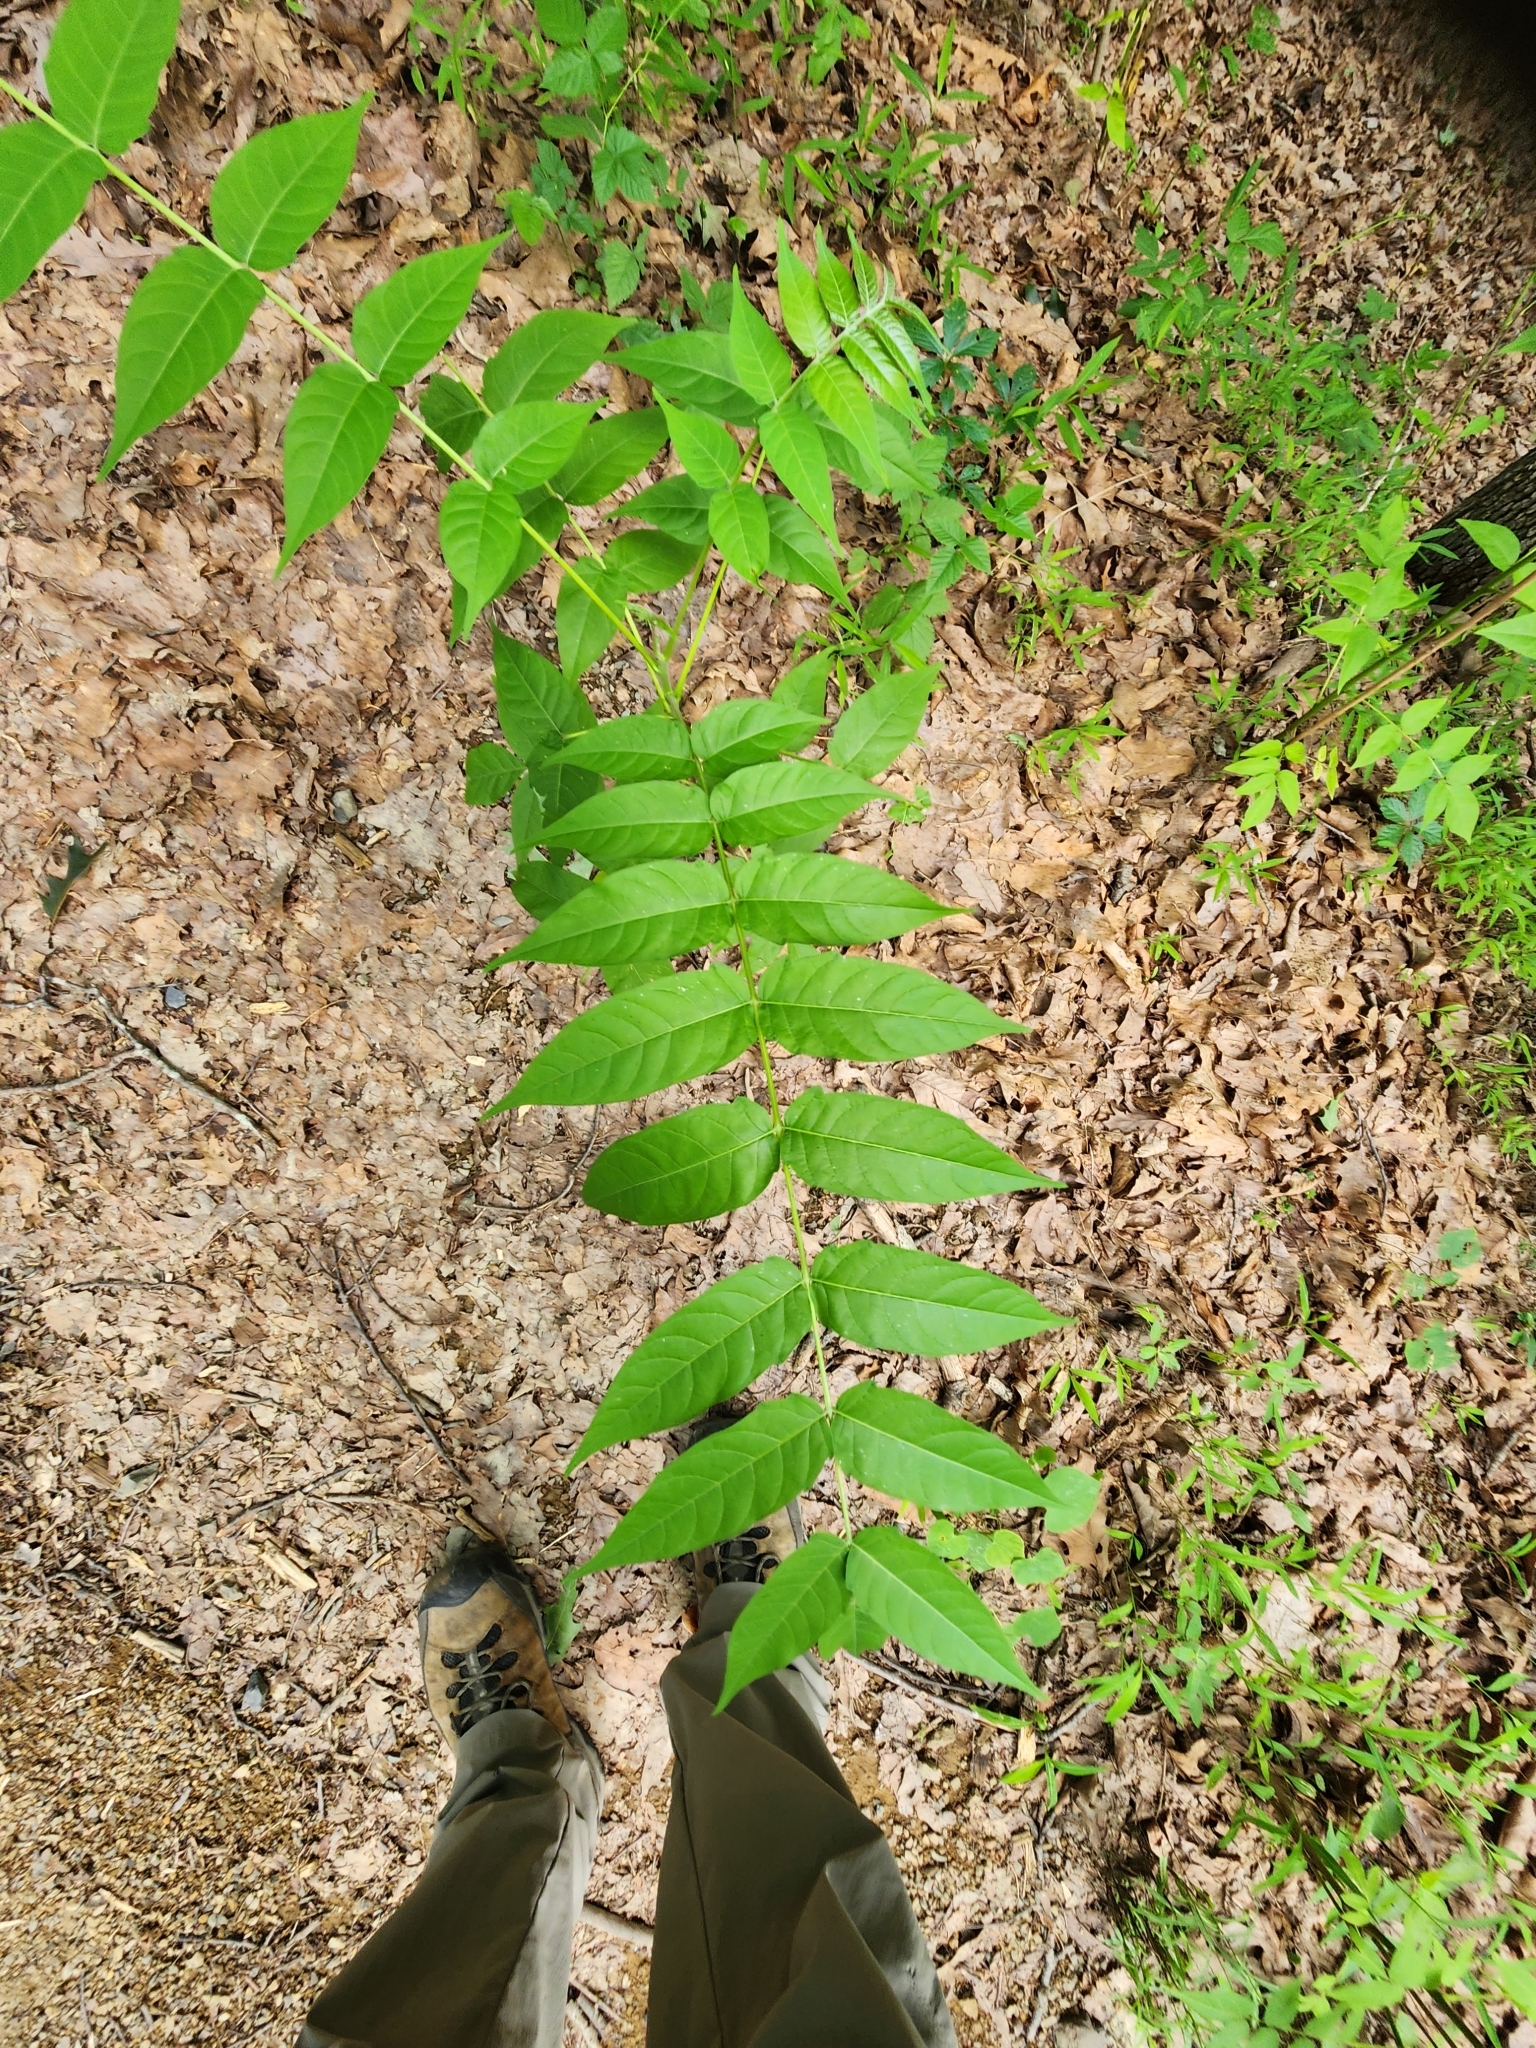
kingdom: Plantae
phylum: Tracheophyta
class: Magnoliopsida
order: Sapindales
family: Simaroubaceae
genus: Ailanthus
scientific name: Ailanthus altissima
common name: Tree-of-heaven
